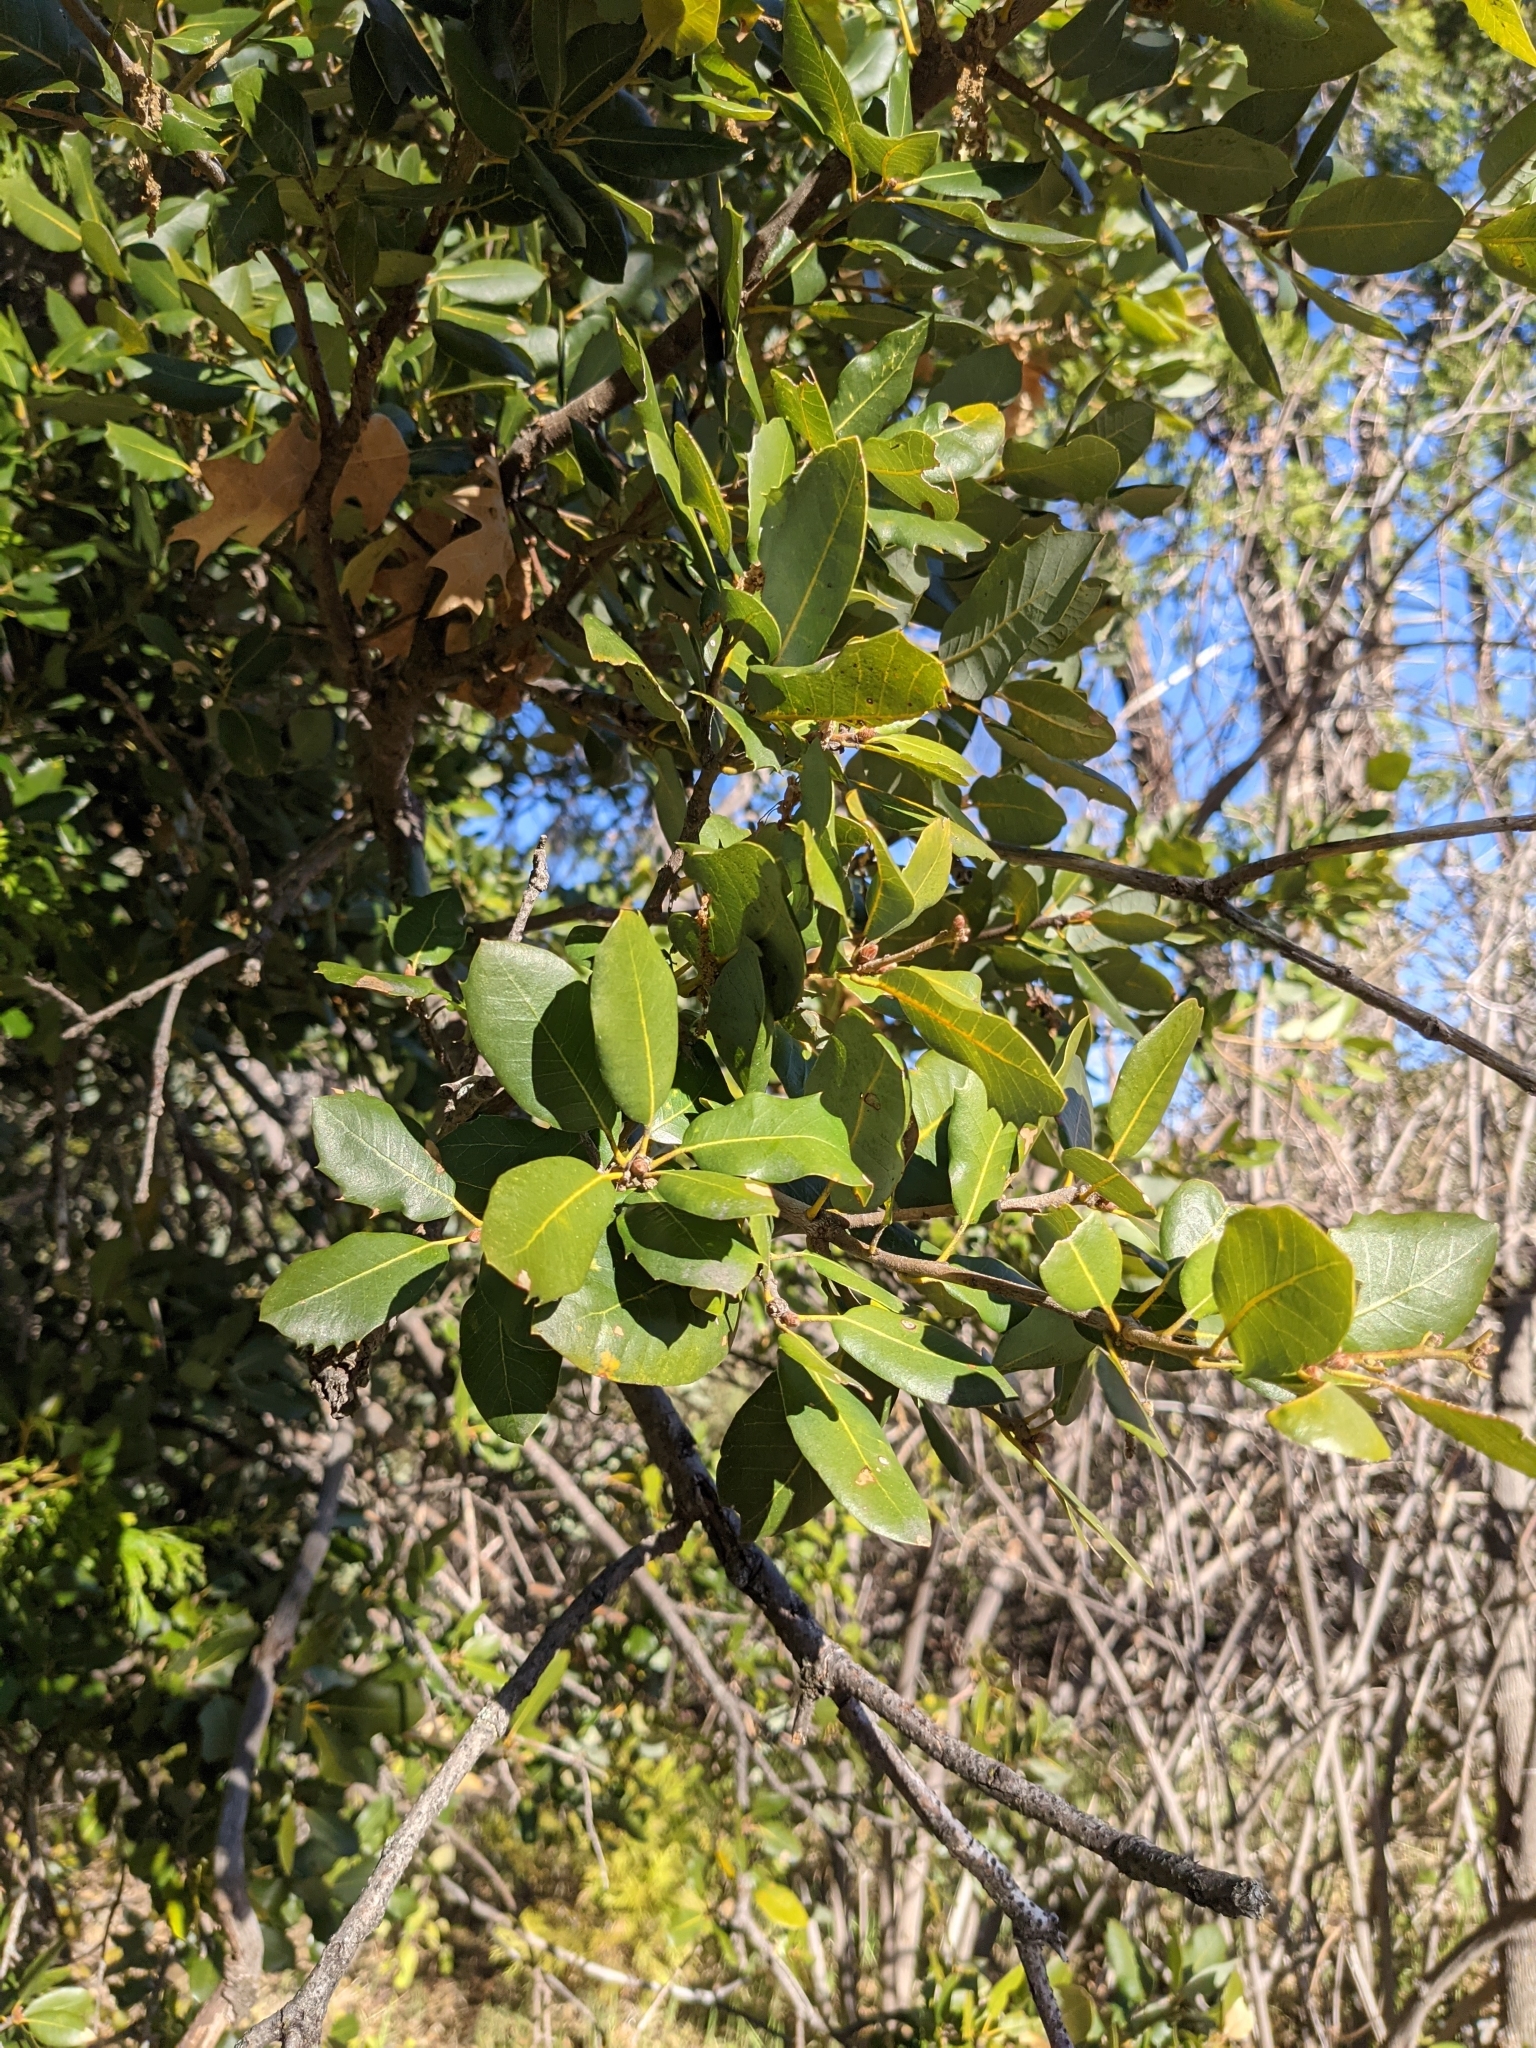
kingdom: Plantae
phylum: Tracheophyta
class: Magnoliopsida
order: Fagales
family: Fagaceae
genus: Quercus
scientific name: Quercus chrysolepis
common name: Canyon live oak
